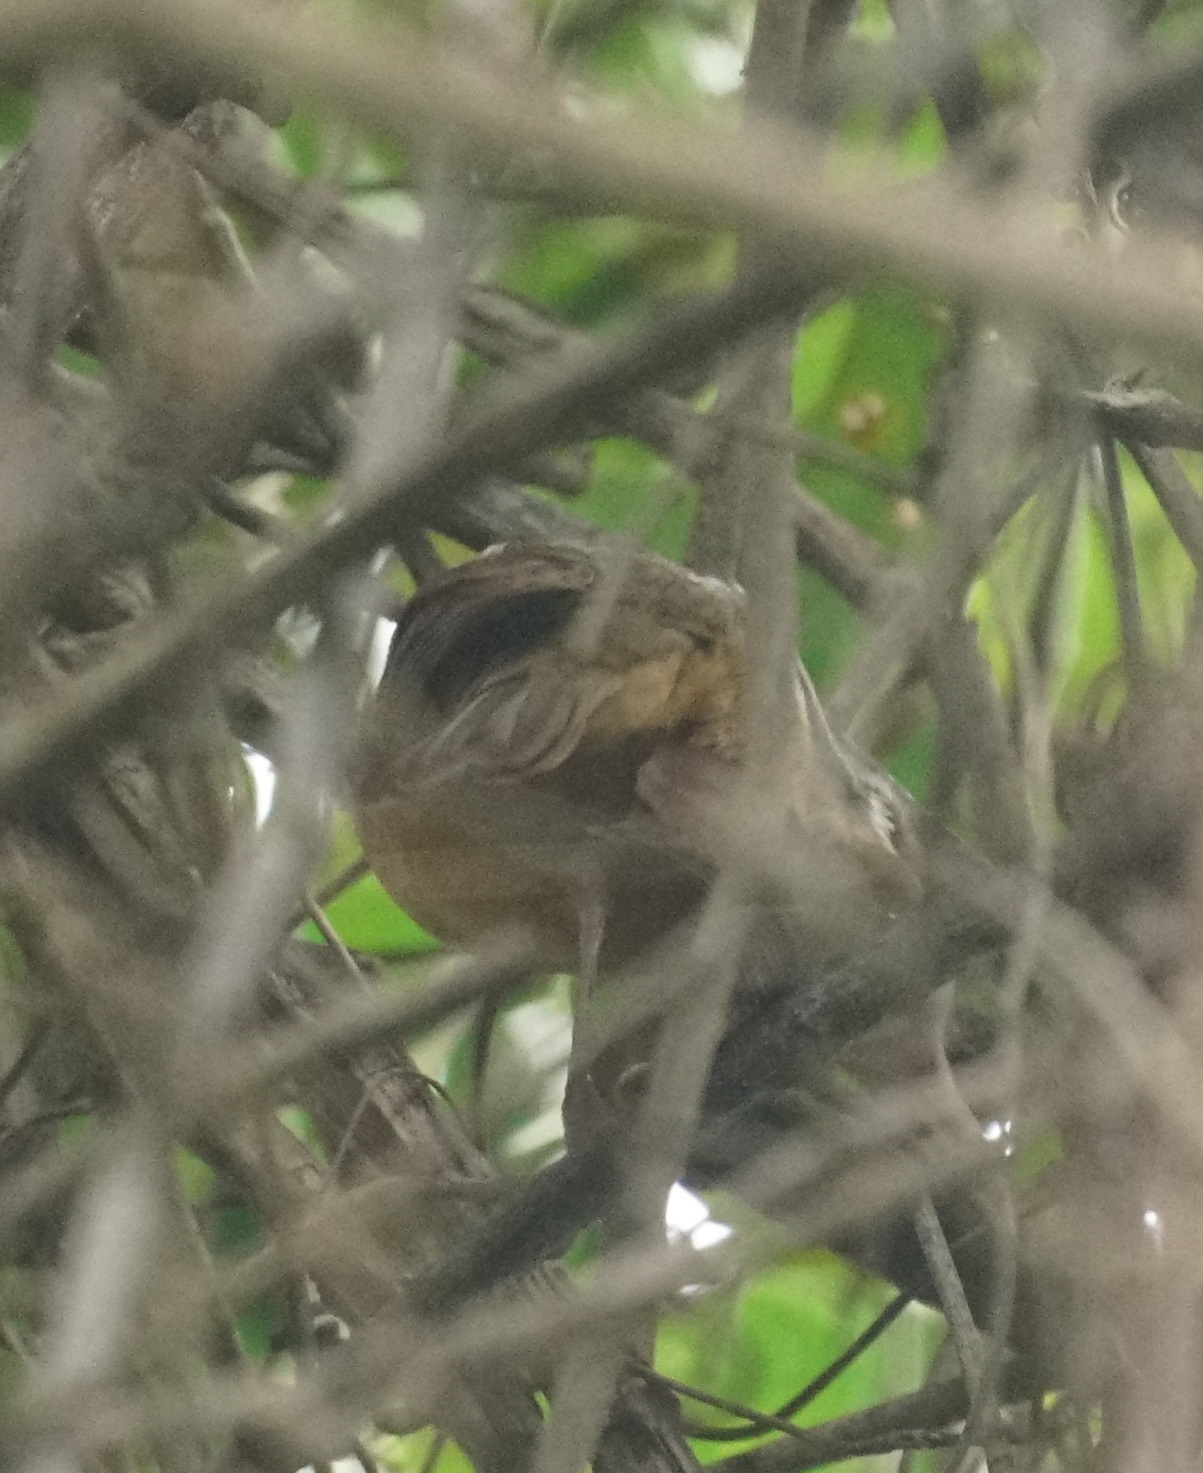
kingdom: Animalia
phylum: Chordata
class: Aves
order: Passeriformes
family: Pachycephalidae
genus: Colluricincla
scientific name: Colluricincla rufogaster
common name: Rufous shrikethrush
